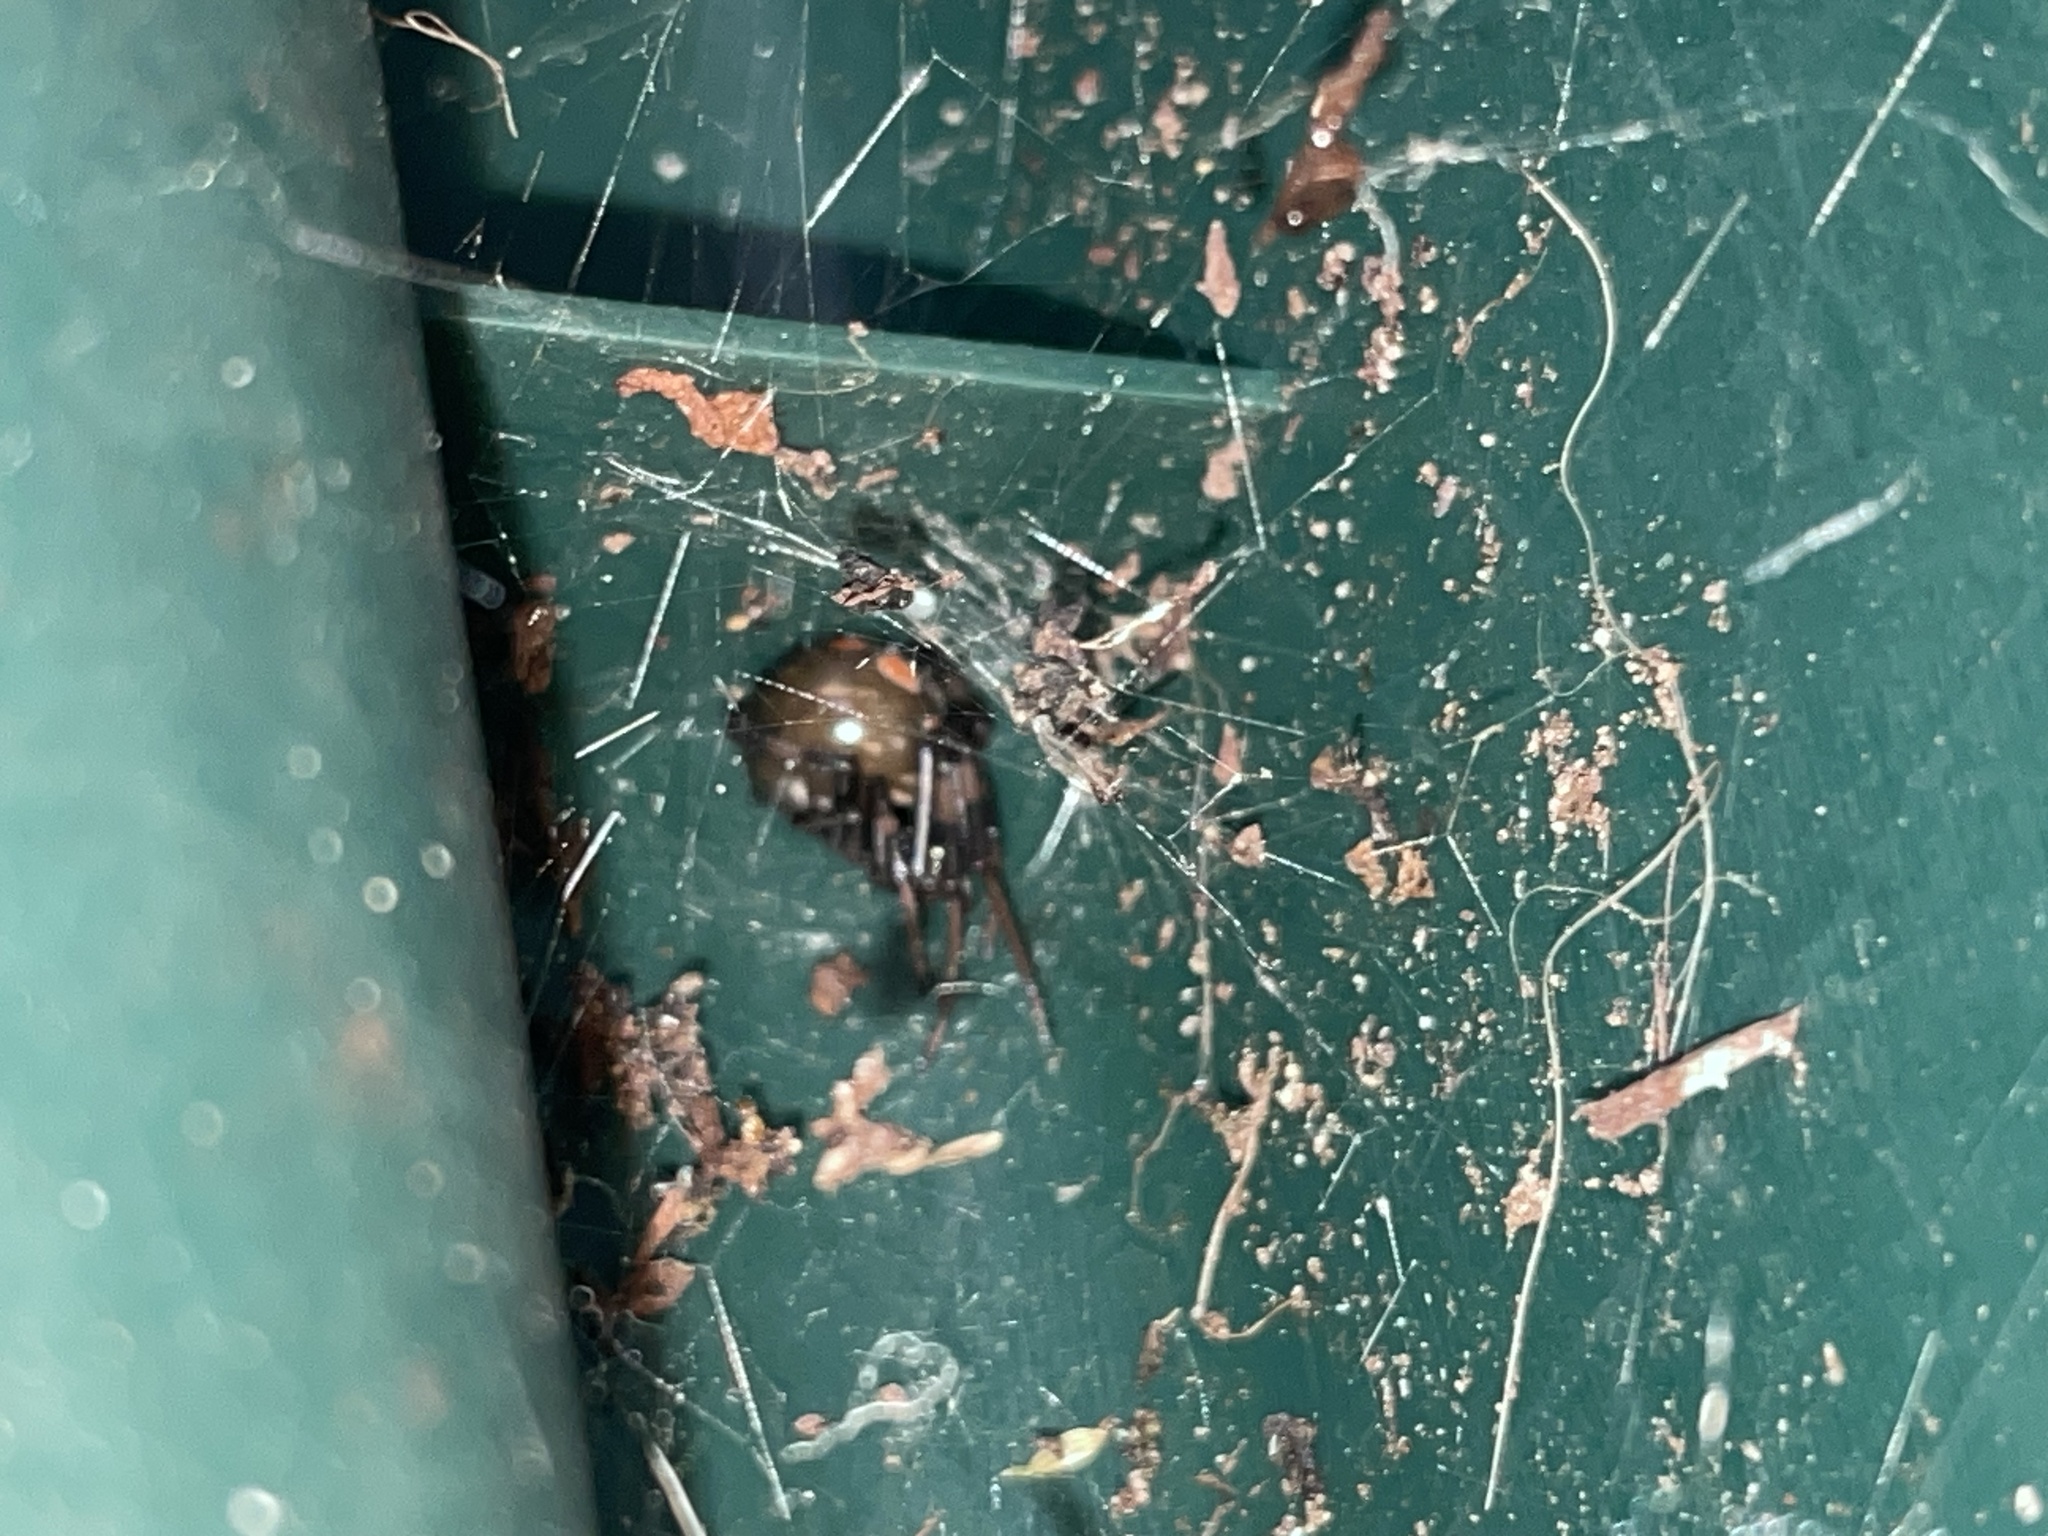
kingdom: Animalia
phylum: Arthropoda
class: Arachnida
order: Araneae
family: Theridiidae
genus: Latrodectus
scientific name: Latrodectus mactans
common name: Cobweb spiders
